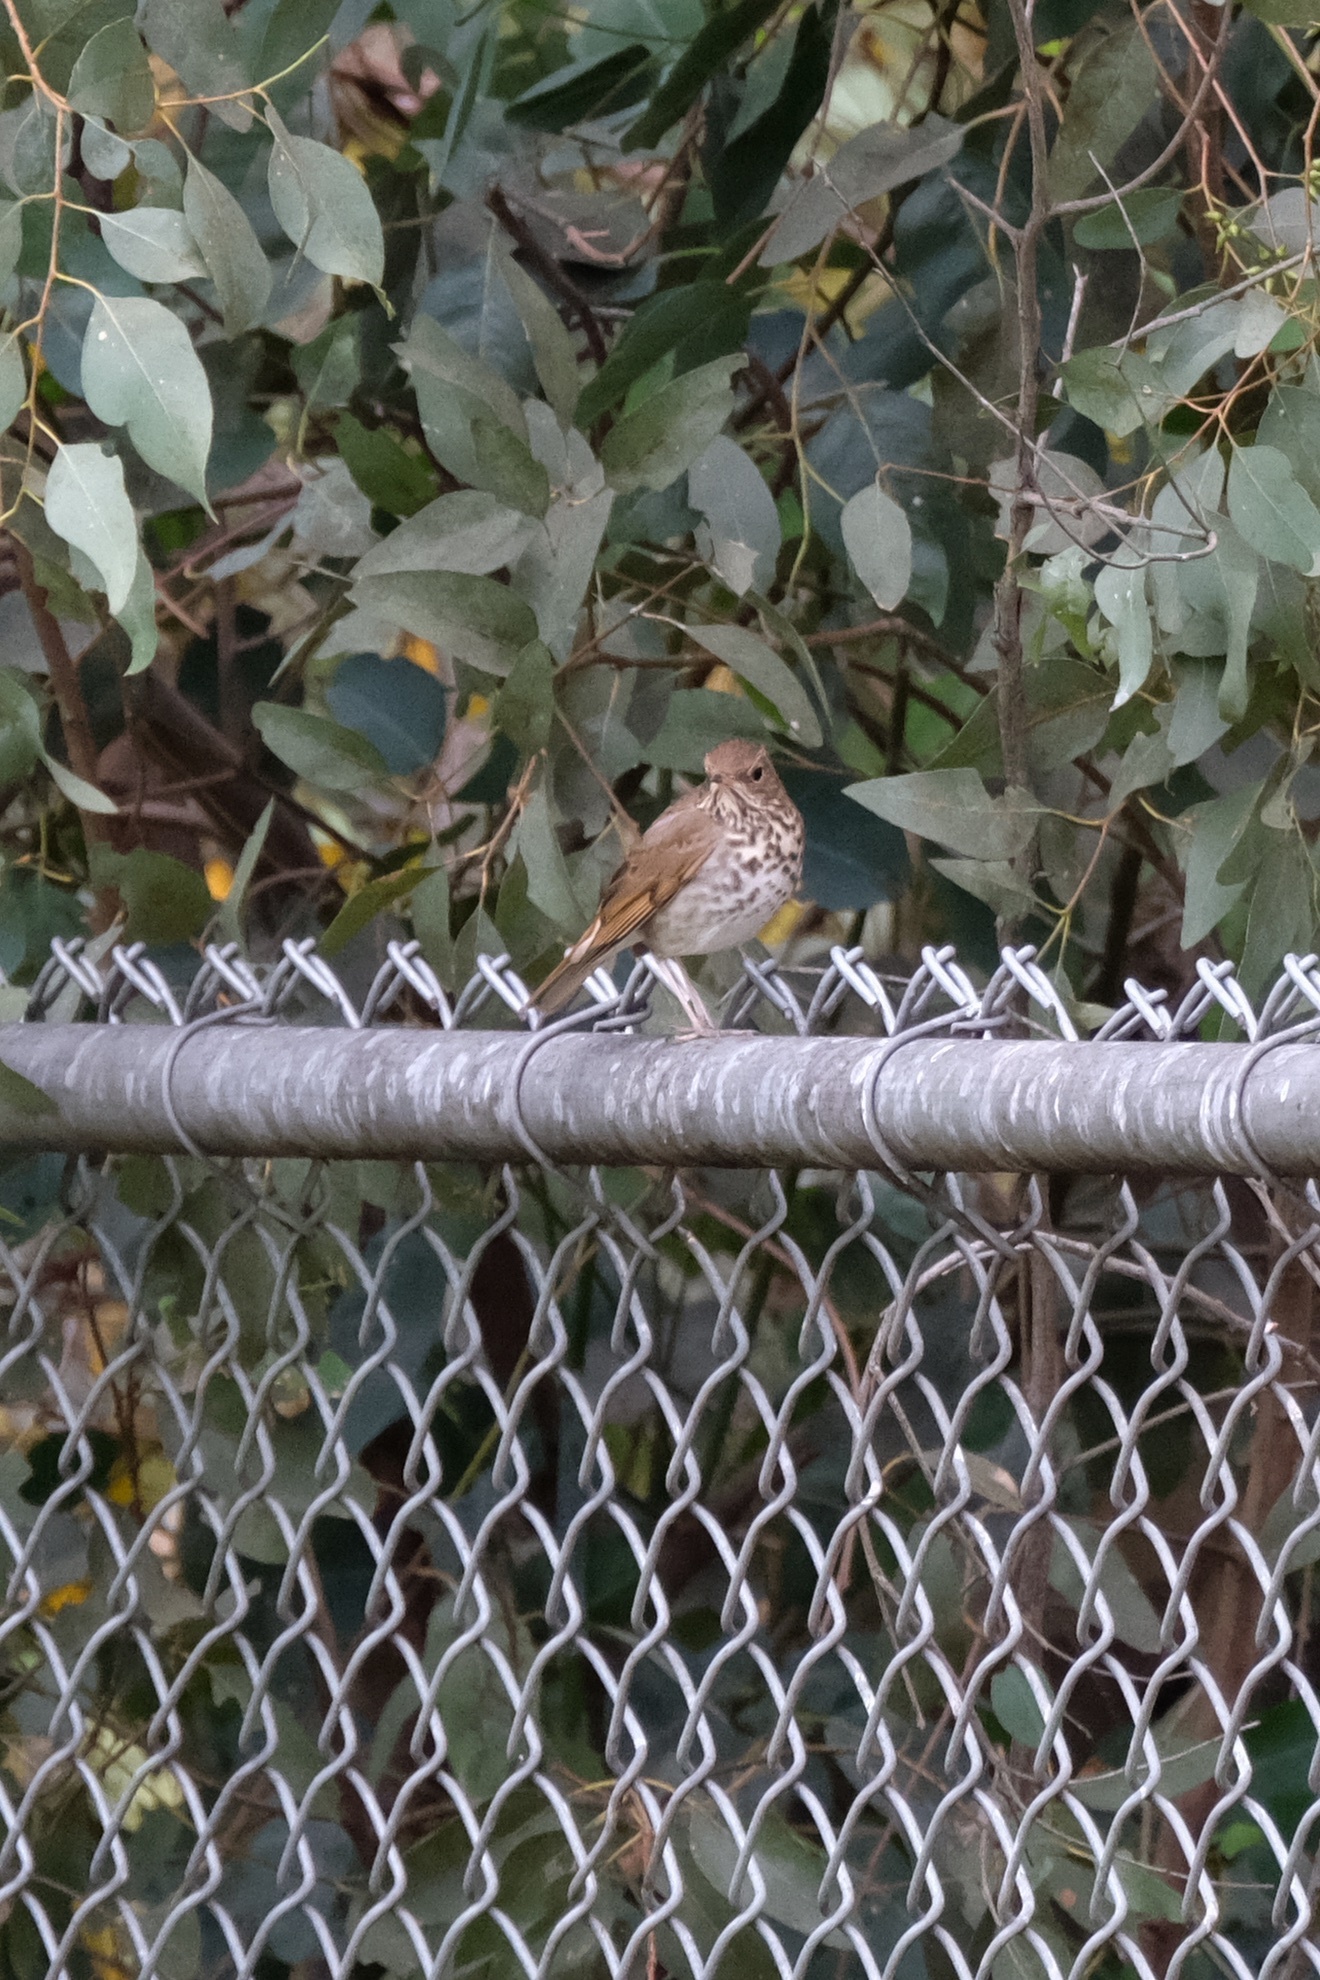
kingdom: Animalia
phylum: Chordata
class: Aves
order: Passeriformes
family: Turdidae
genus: Catharus
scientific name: Catharus guttatus
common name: Hermit thrush
